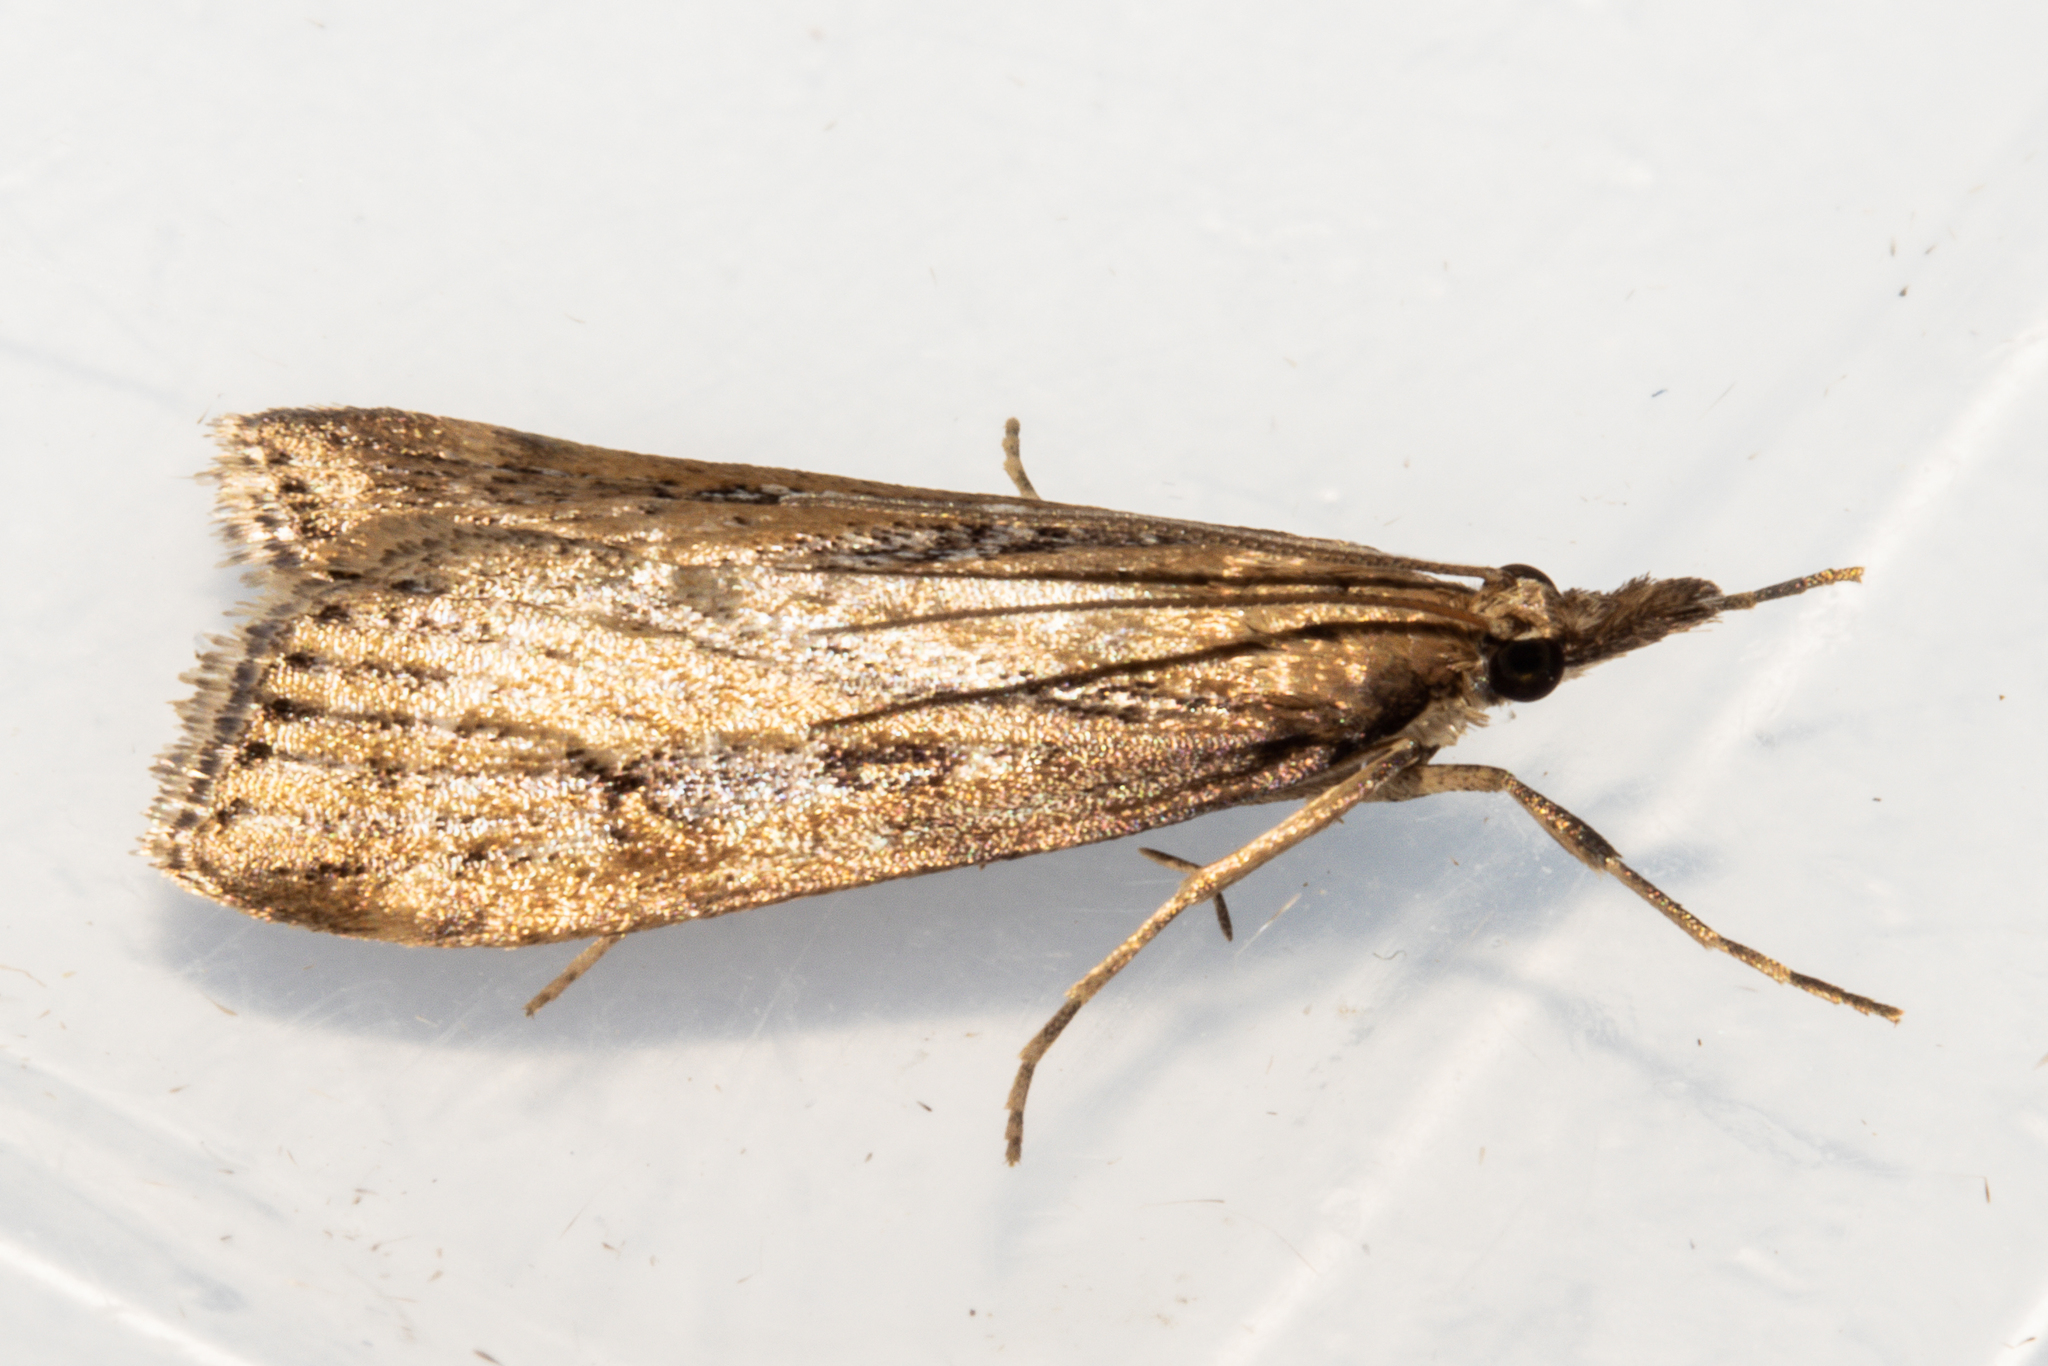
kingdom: Animalia
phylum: Arthropoda
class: Insecta
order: Lepidoptera
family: Crambidae
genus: Eudonia
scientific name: Eudonia octophora
